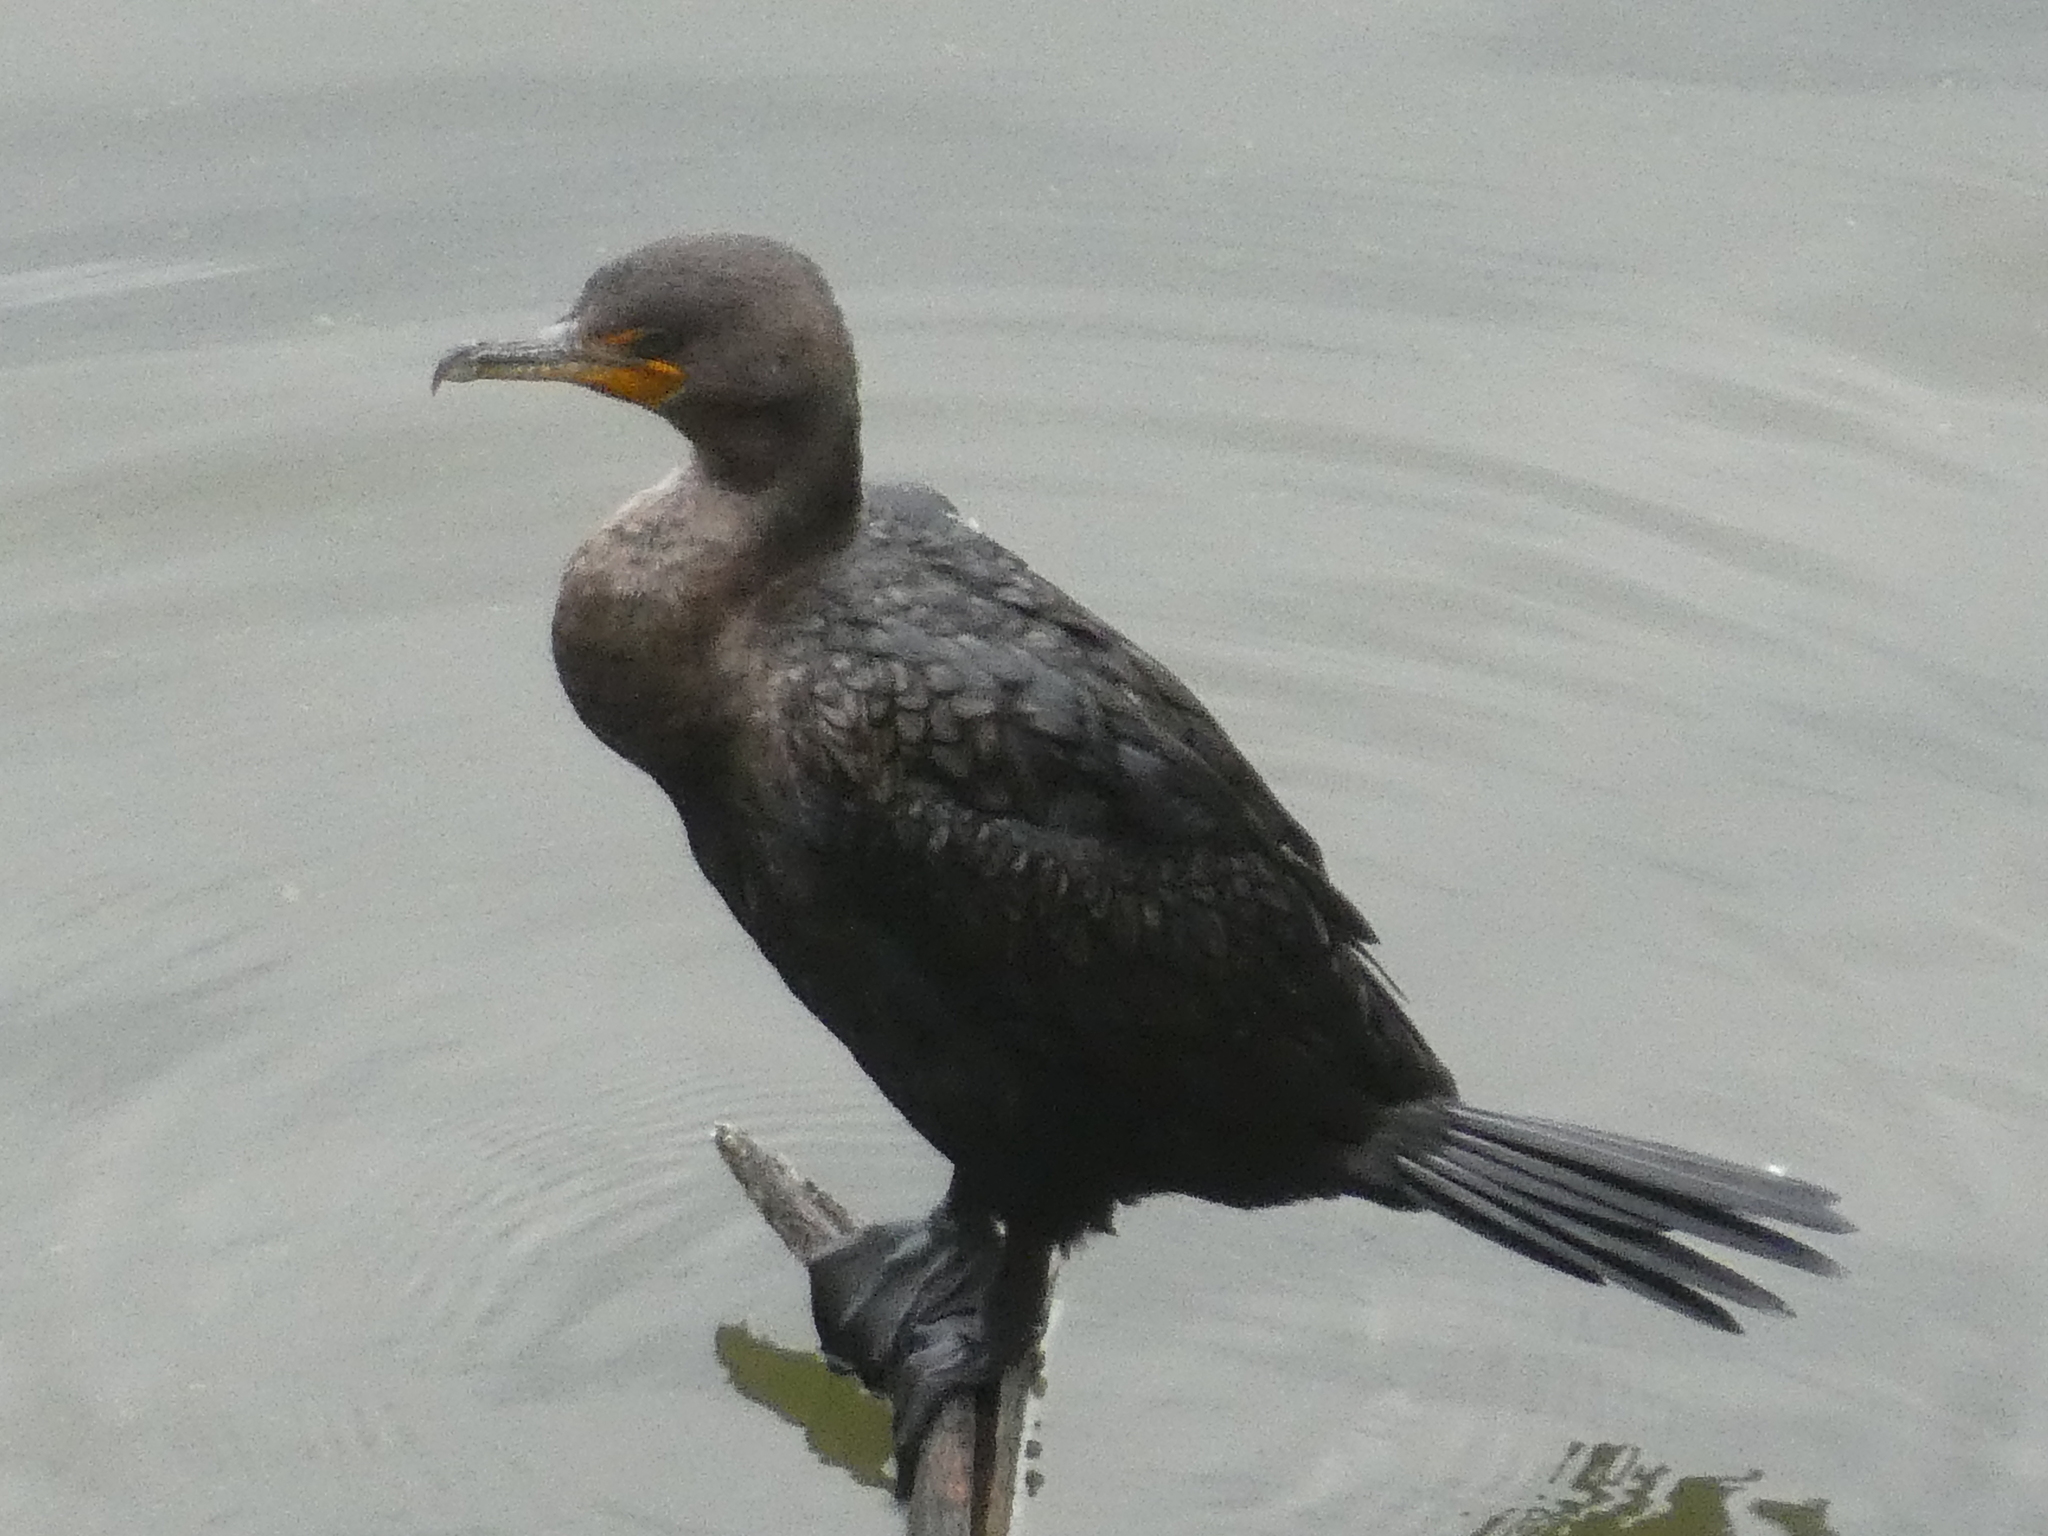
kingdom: Animalia
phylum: Chordata
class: Aves
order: Suliformes
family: Phalacrocoracidae
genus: Phalacrocorax
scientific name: Phalacrocorax auritus
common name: Double-crested cormorant
